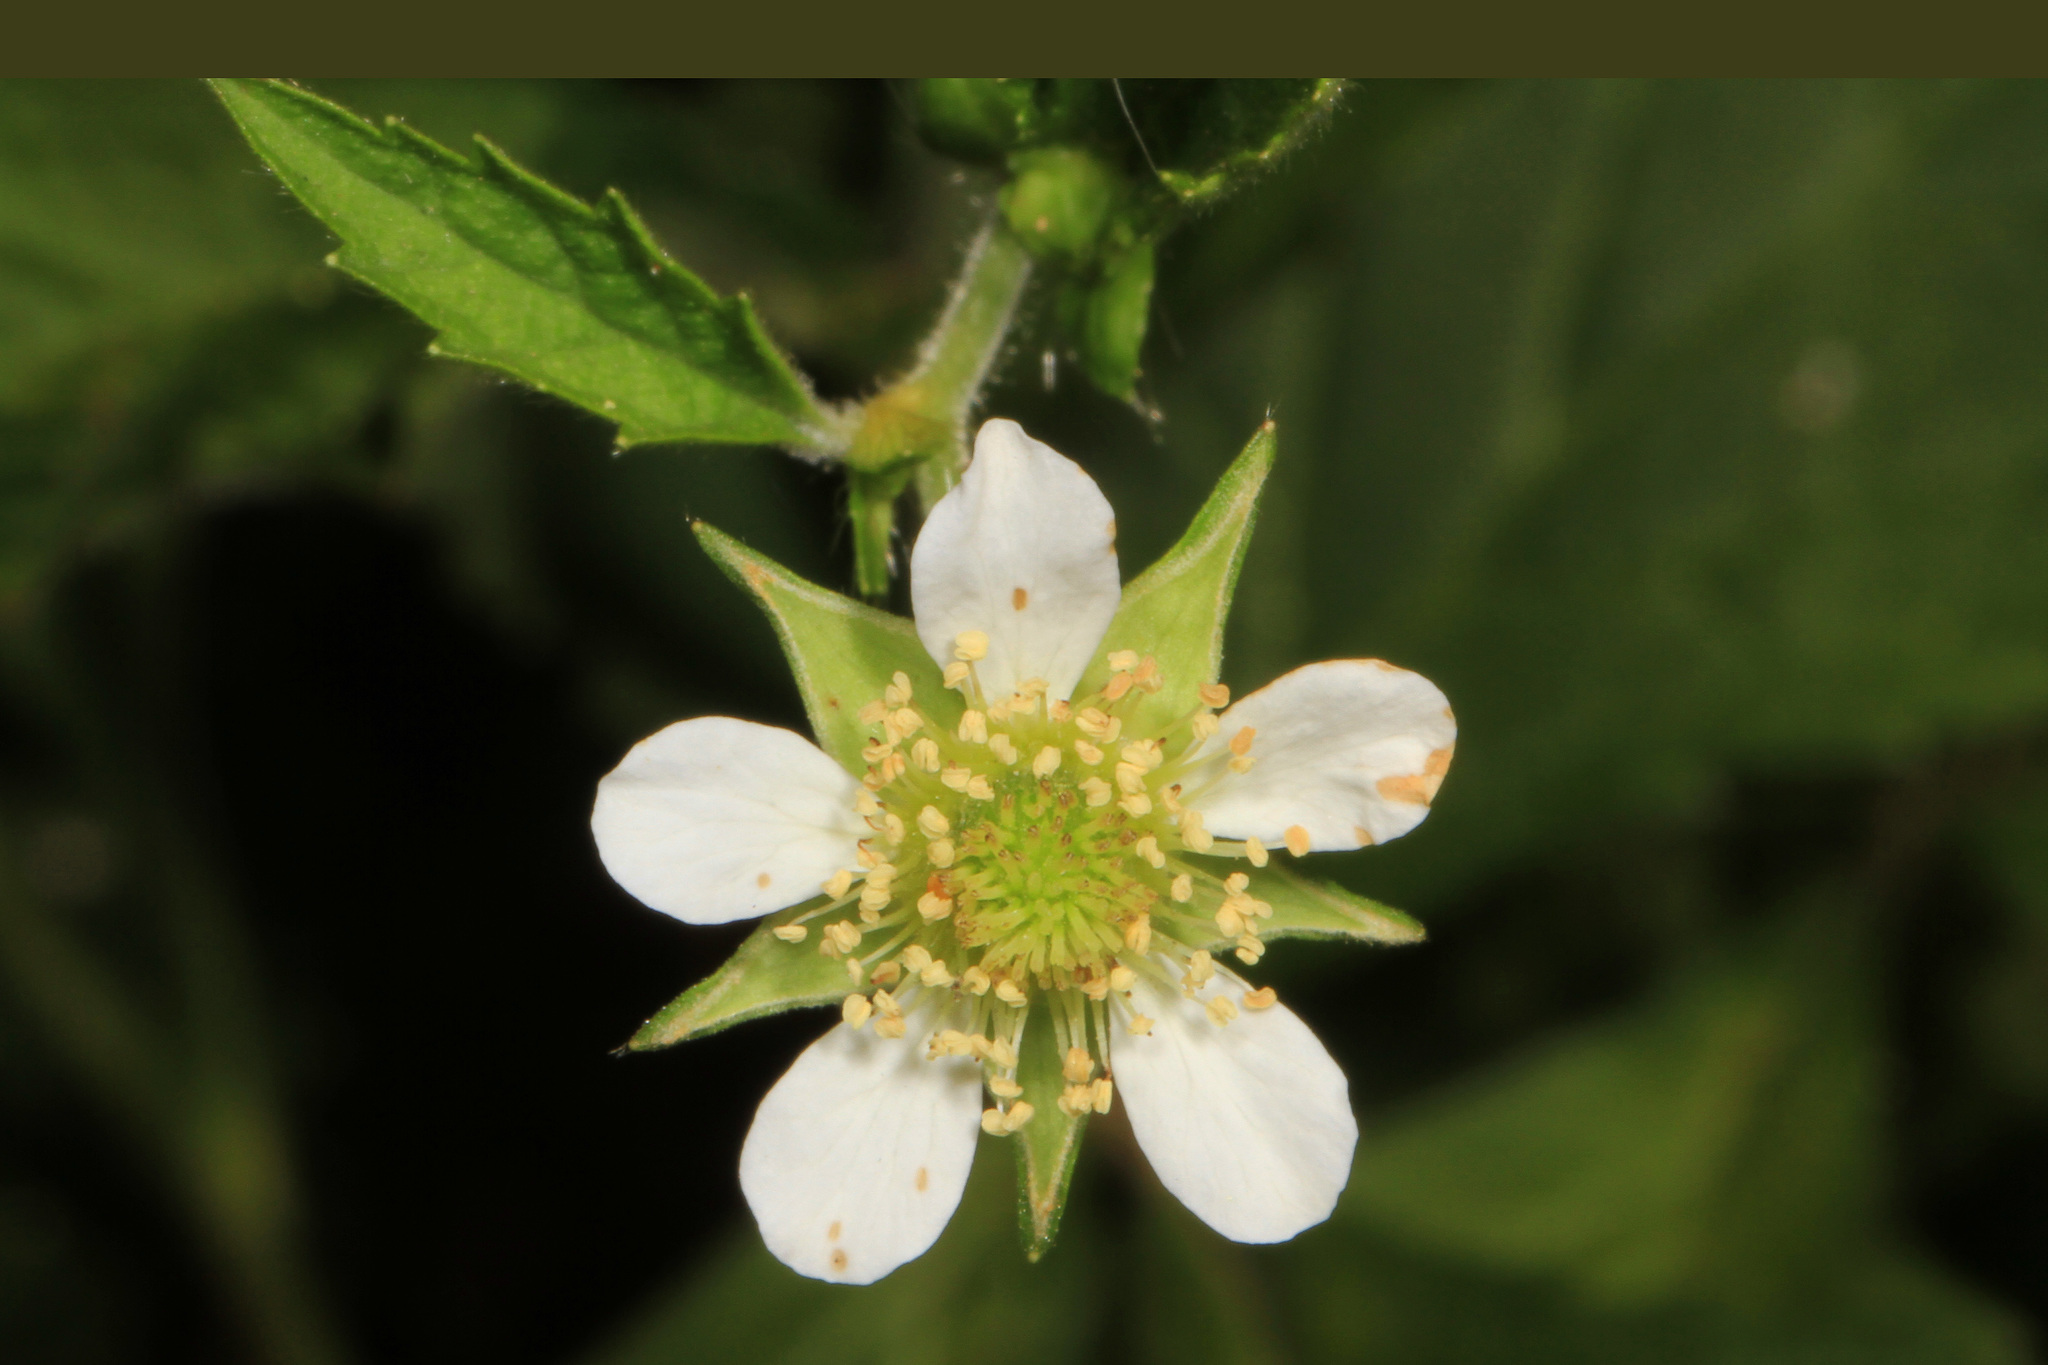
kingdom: Plantae
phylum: Tracheophyta
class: Magnoliopsida
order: Rosales
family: Rosaceae
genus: Geum
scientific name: Geum canadense
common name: White avens
